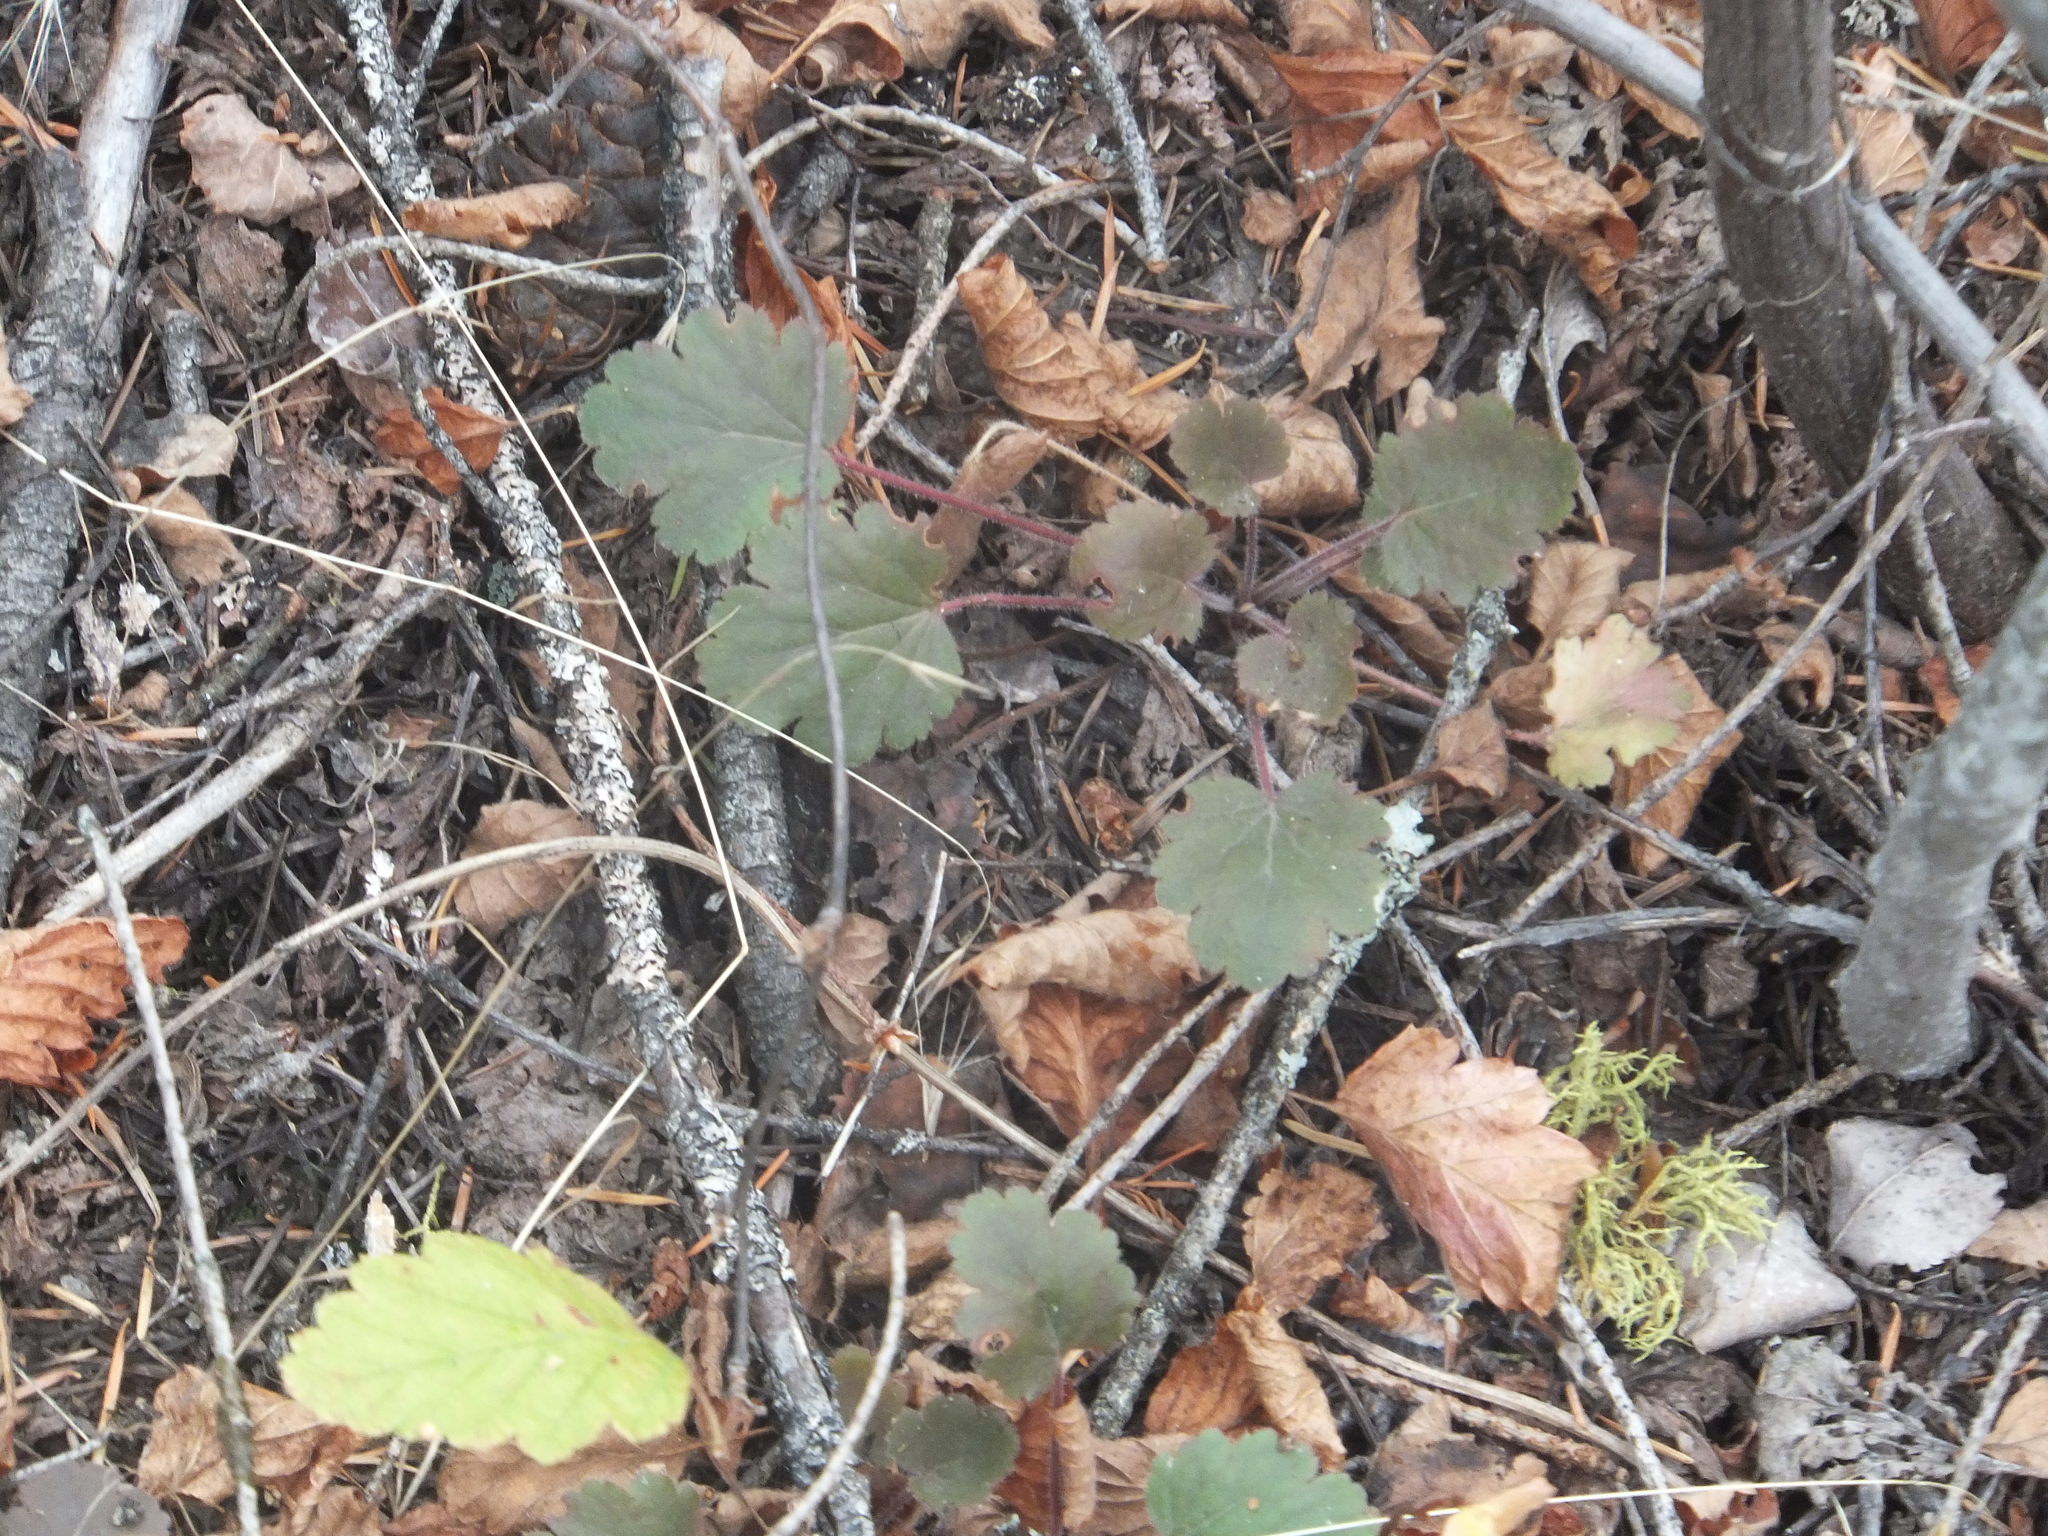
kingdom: Plantae
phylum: Tracheophyta
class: Magnoliopsida
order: Saxifragales
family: Saxifragaceae
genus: Heuchera
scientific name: Heuchera cylindrica
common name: Mat alumroot
